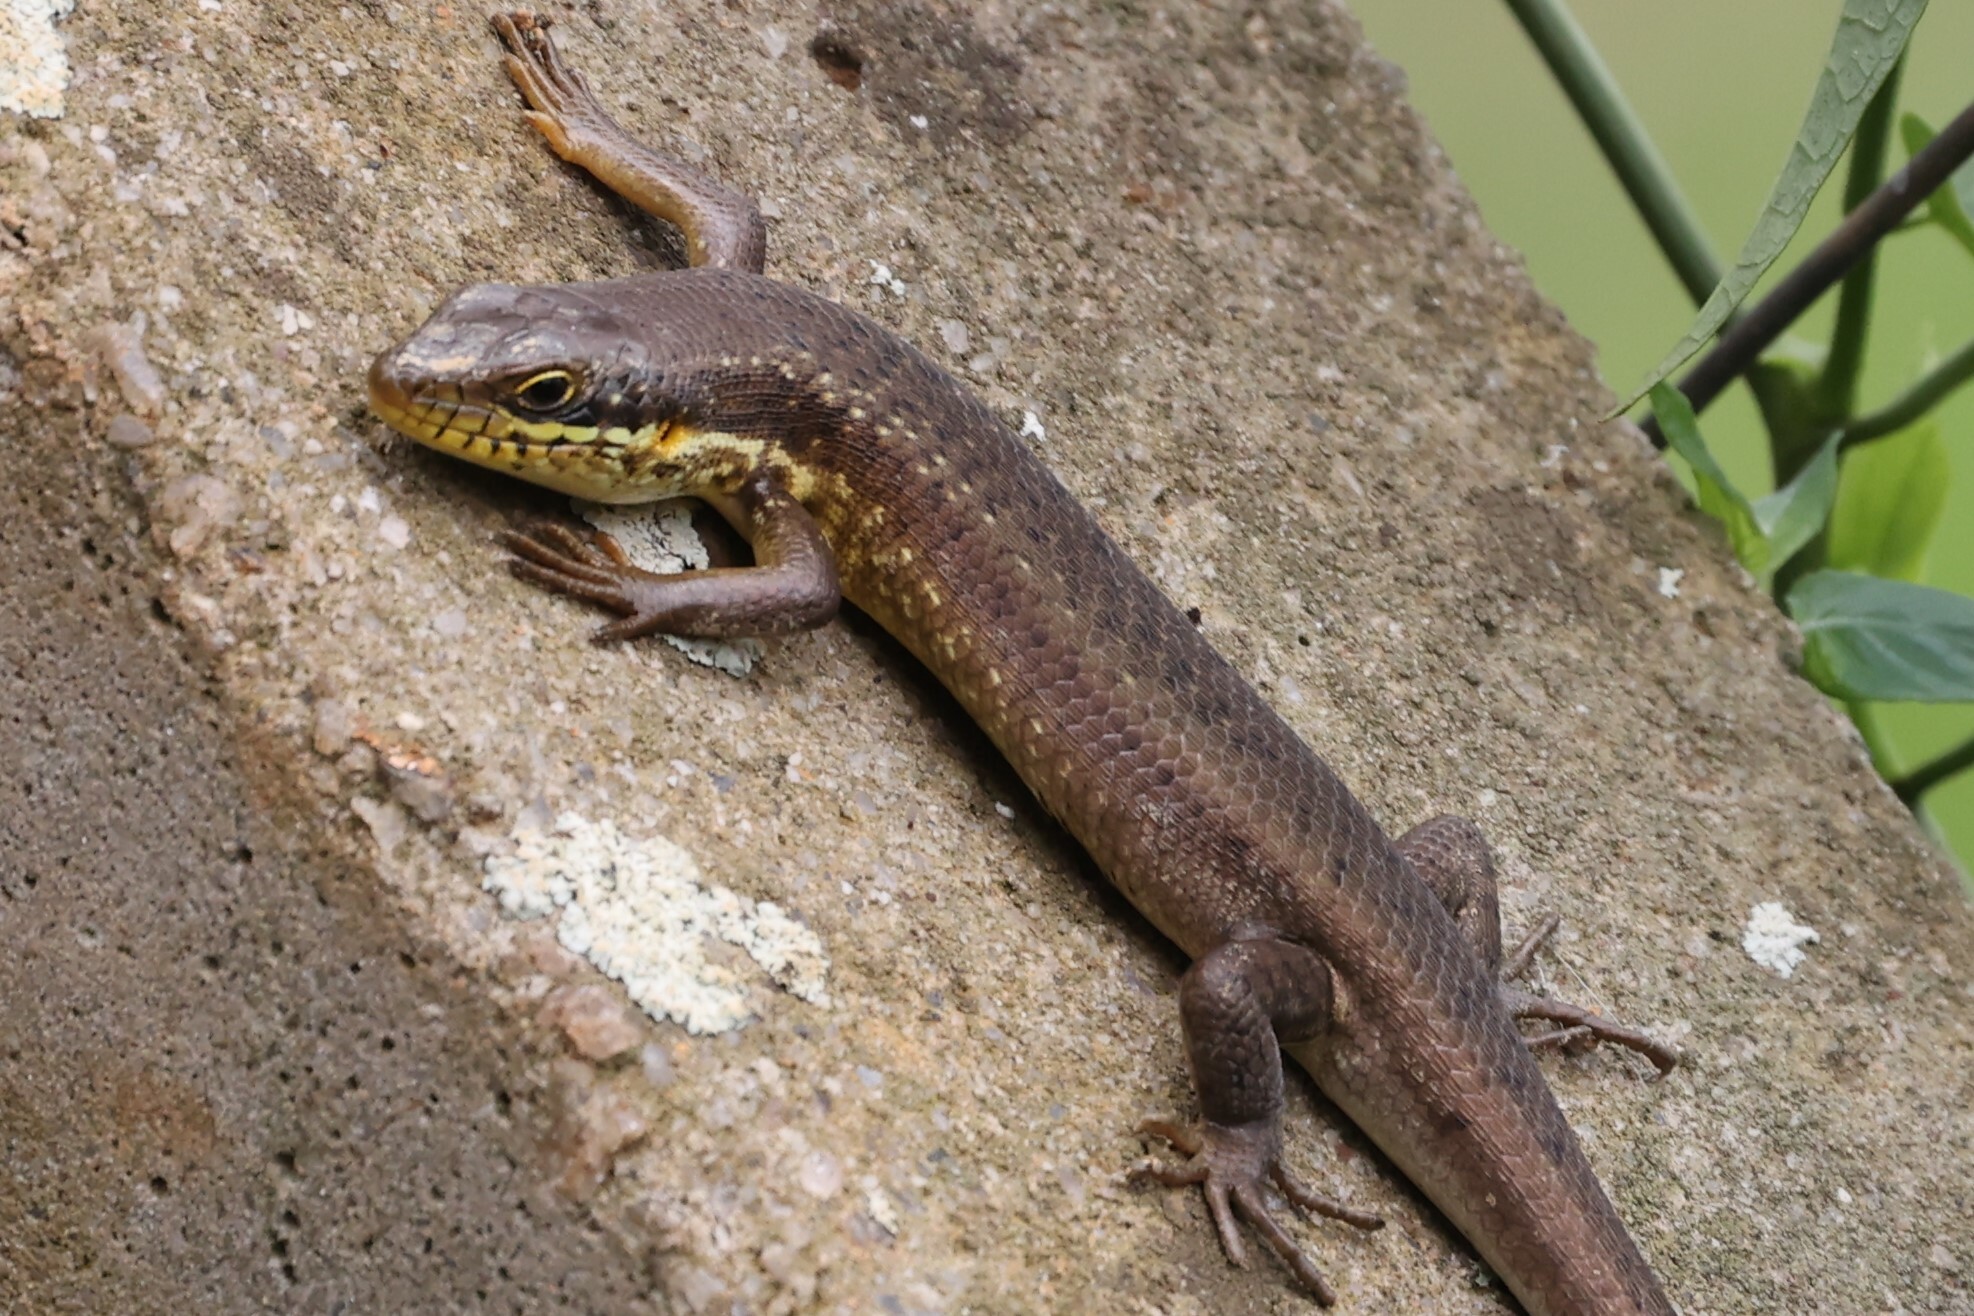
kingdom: Animalia
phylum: Chordata
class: Squamata
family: Scincidae
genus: Trachylepis
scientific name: Trachylepis maculilabris
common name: Speckle-lipped mabuya
